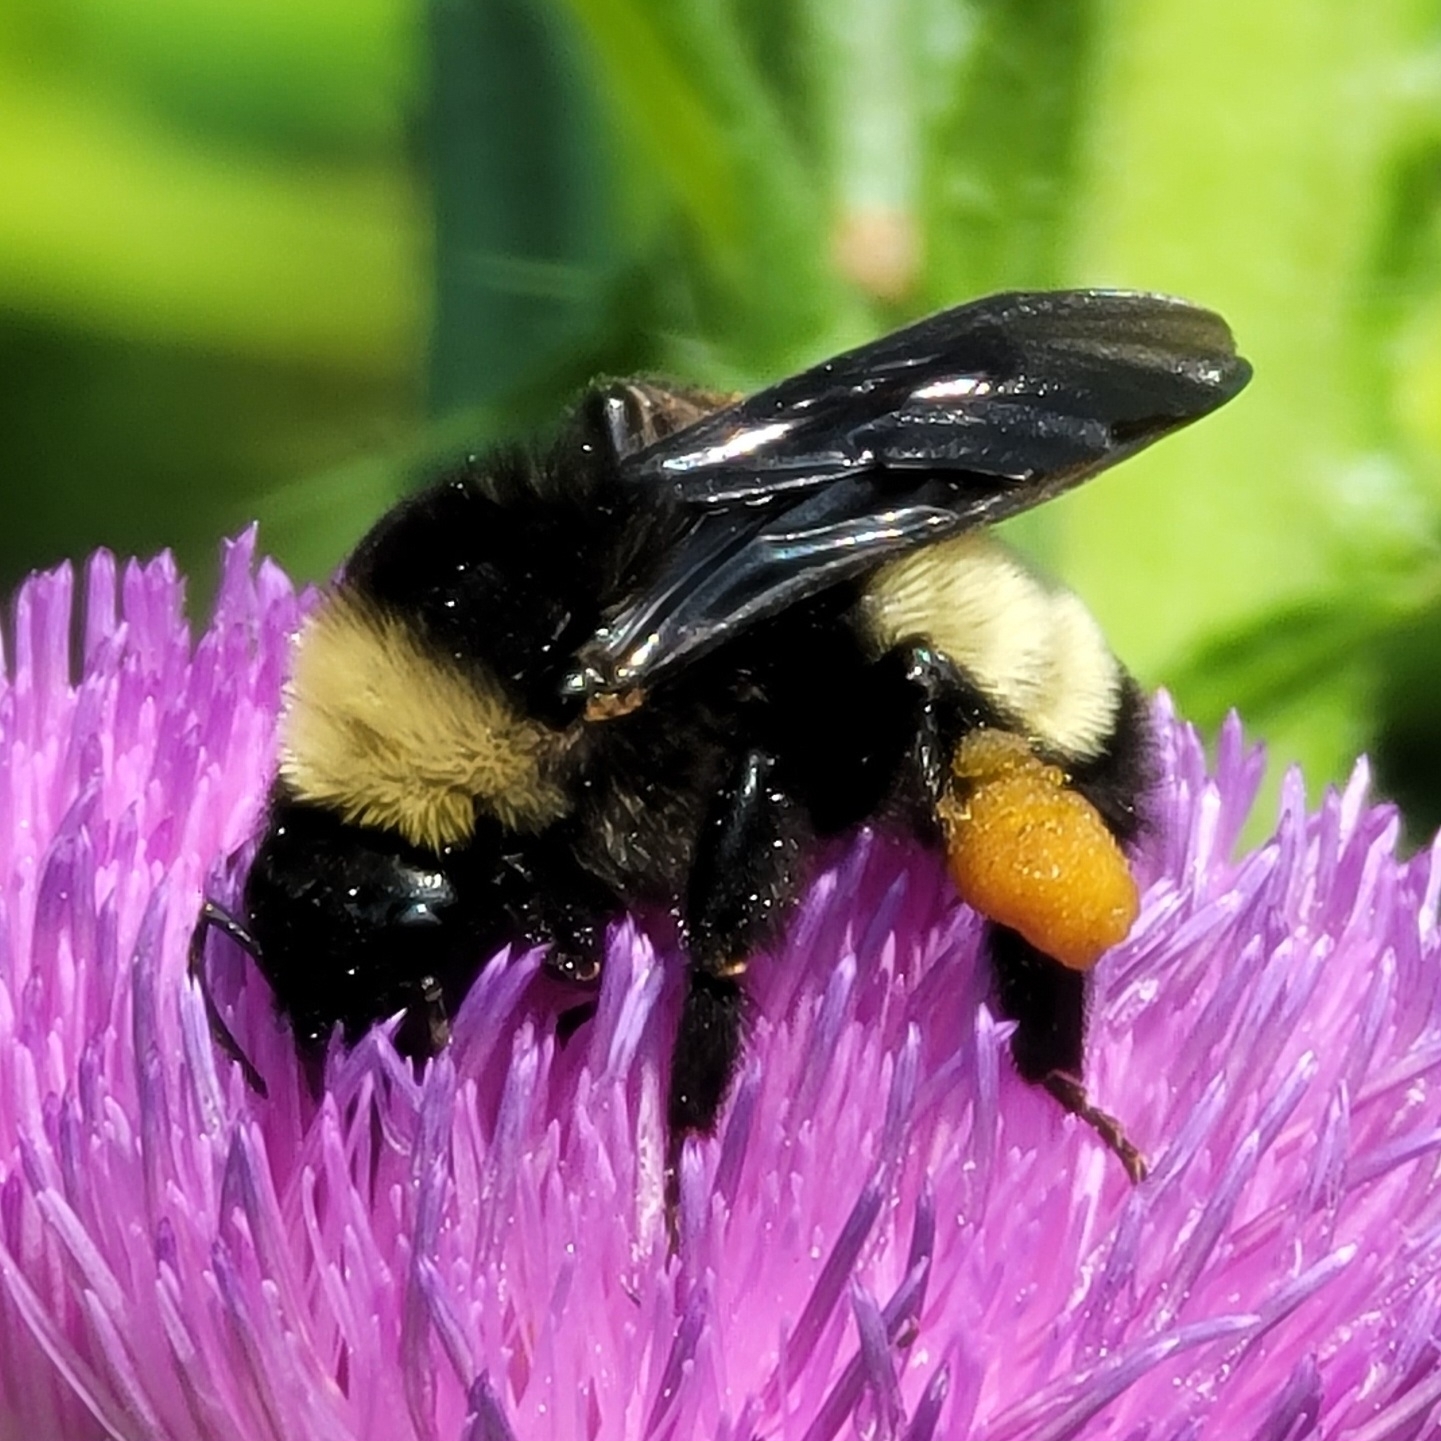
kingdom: Animalia
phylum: Arthropoda
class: Insecta
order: Hymenoptera
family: Apidae
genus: Bombus
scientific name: Bombus pensylvanicus
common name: Bumble bee
